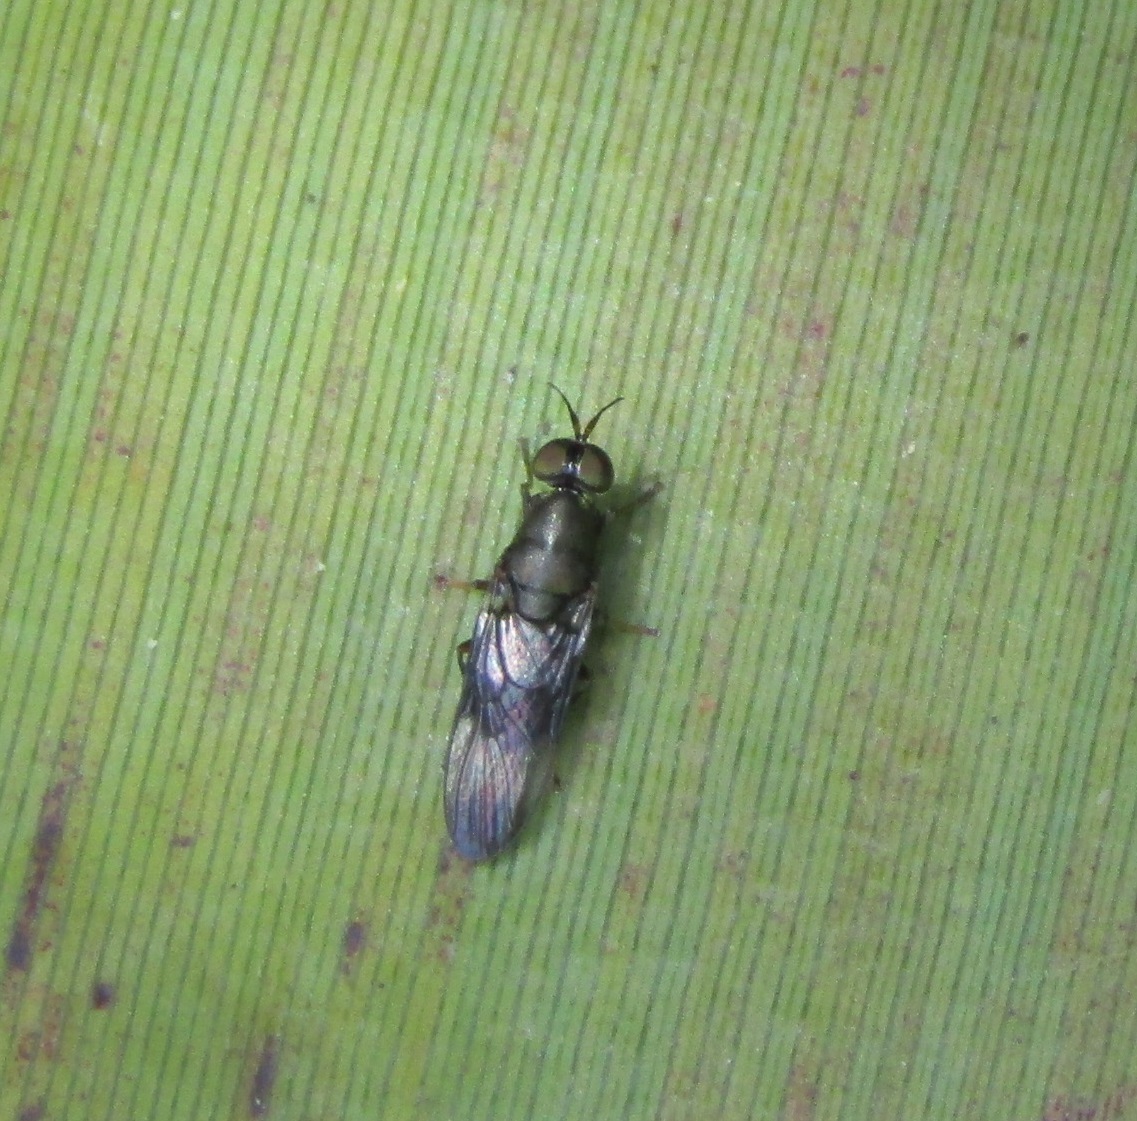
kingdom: Animalia
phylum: Arthropoda
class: Insecta
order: Diptera
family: Stratiomyidae
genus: Dysbiota
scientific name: Dysbiota peregrina
